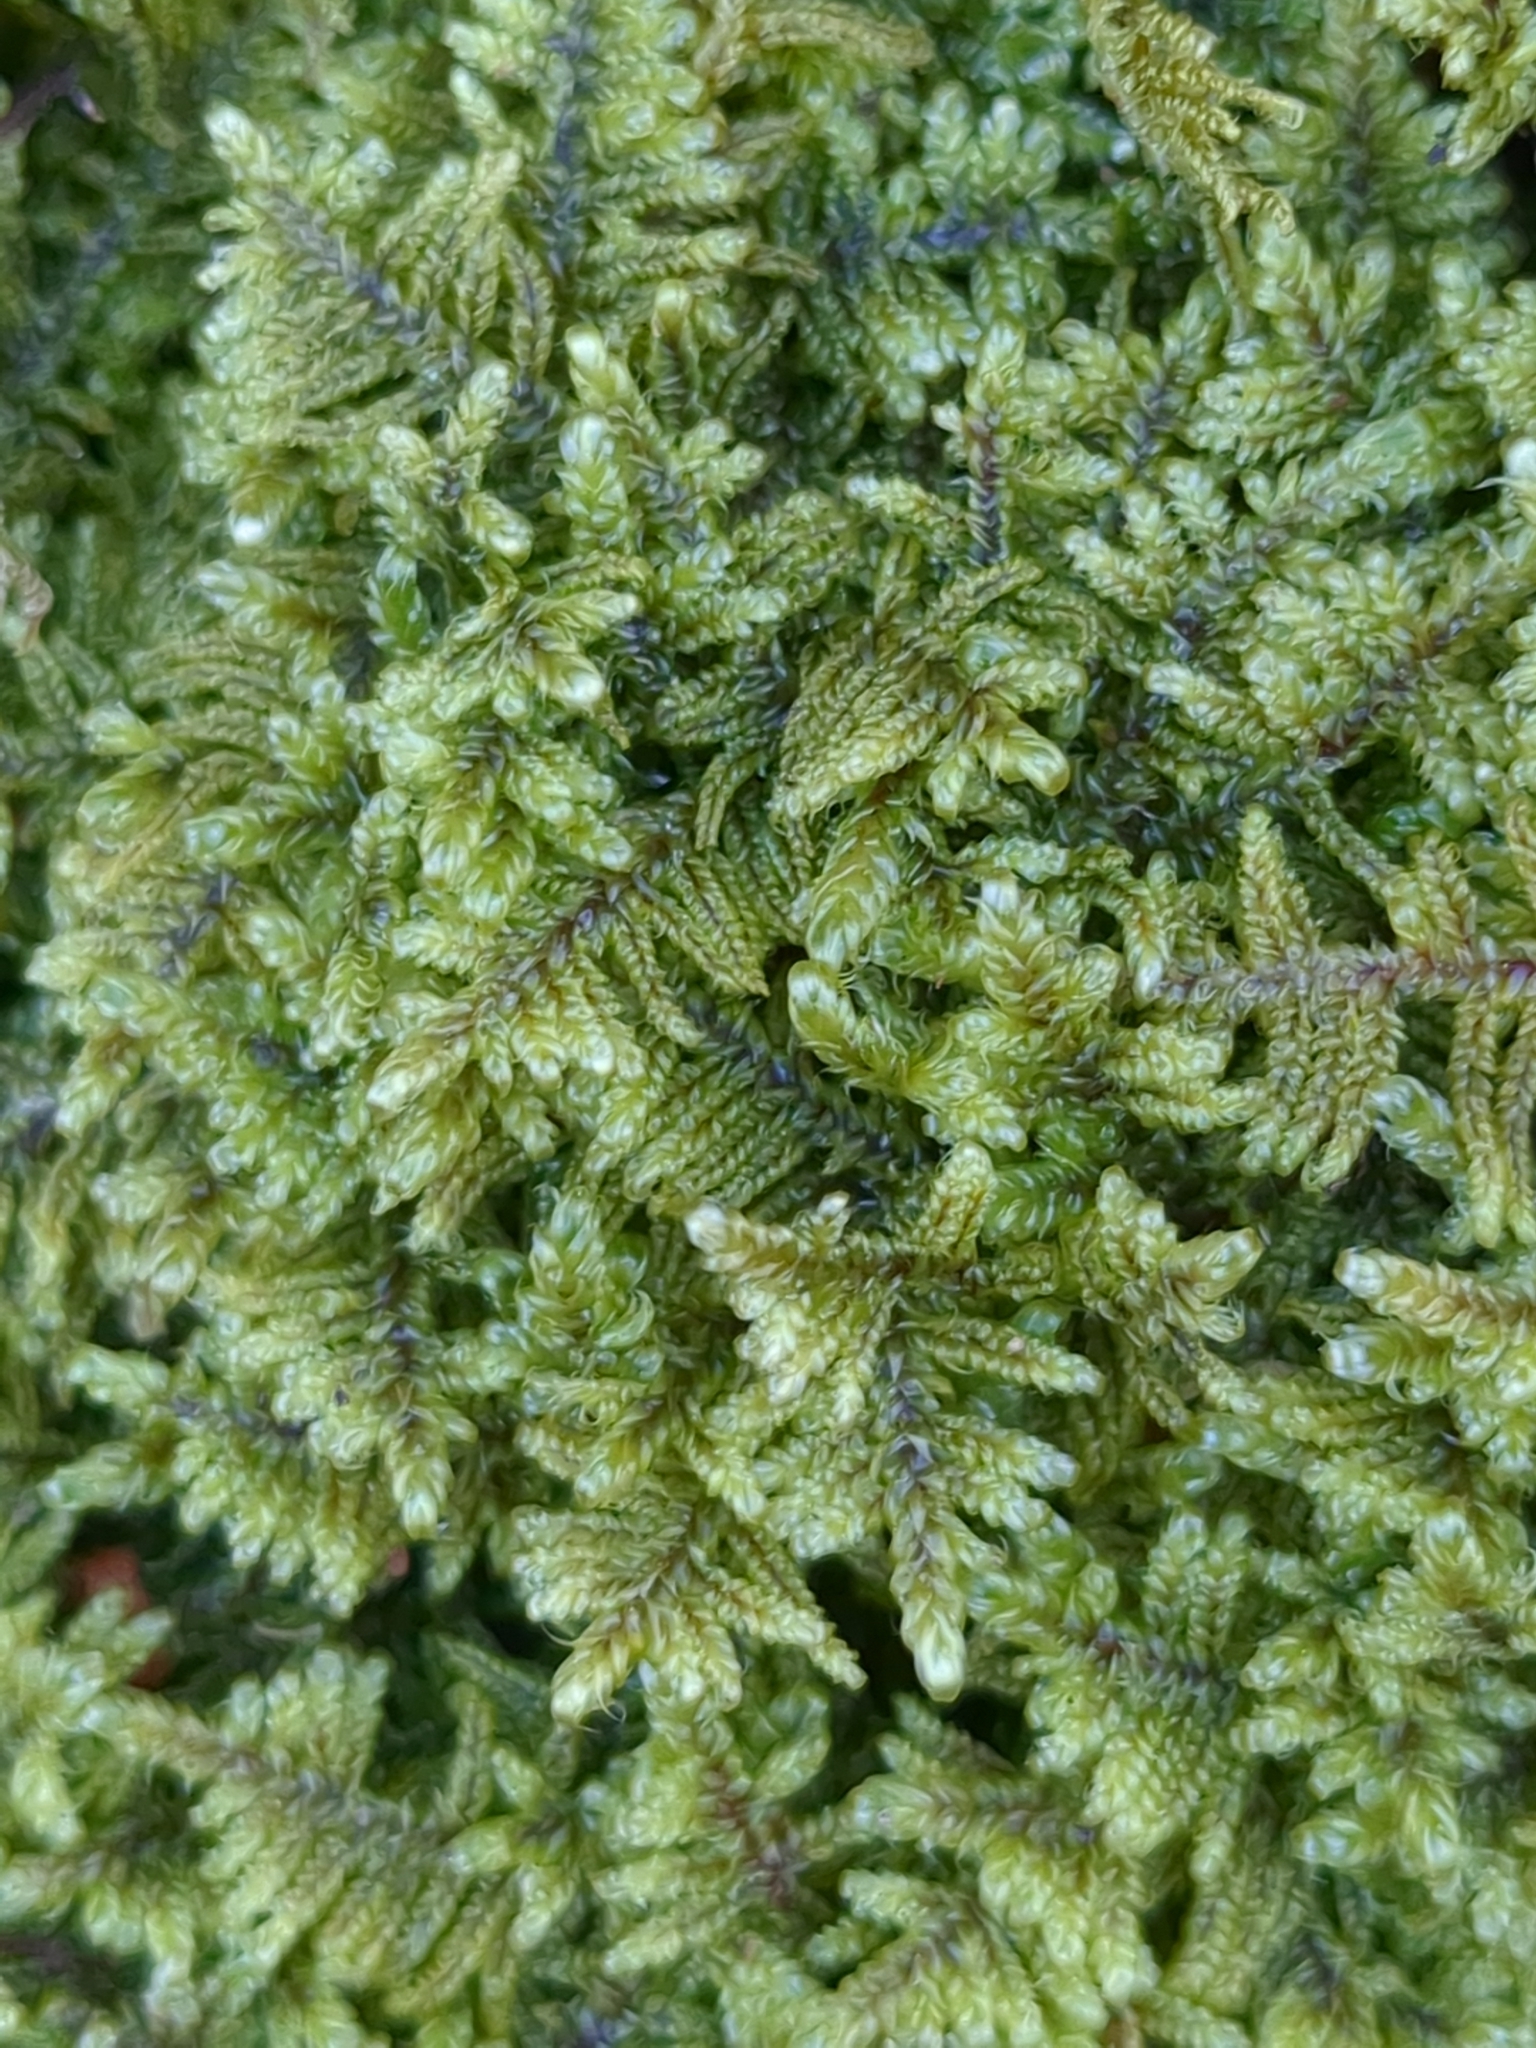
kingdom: Plantae
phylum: Bryophyta
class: Bryopsida
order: Hypnales
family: Callicladiaceae
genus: Callicladium
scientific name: Callicladium imponens
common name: Brocade moss
